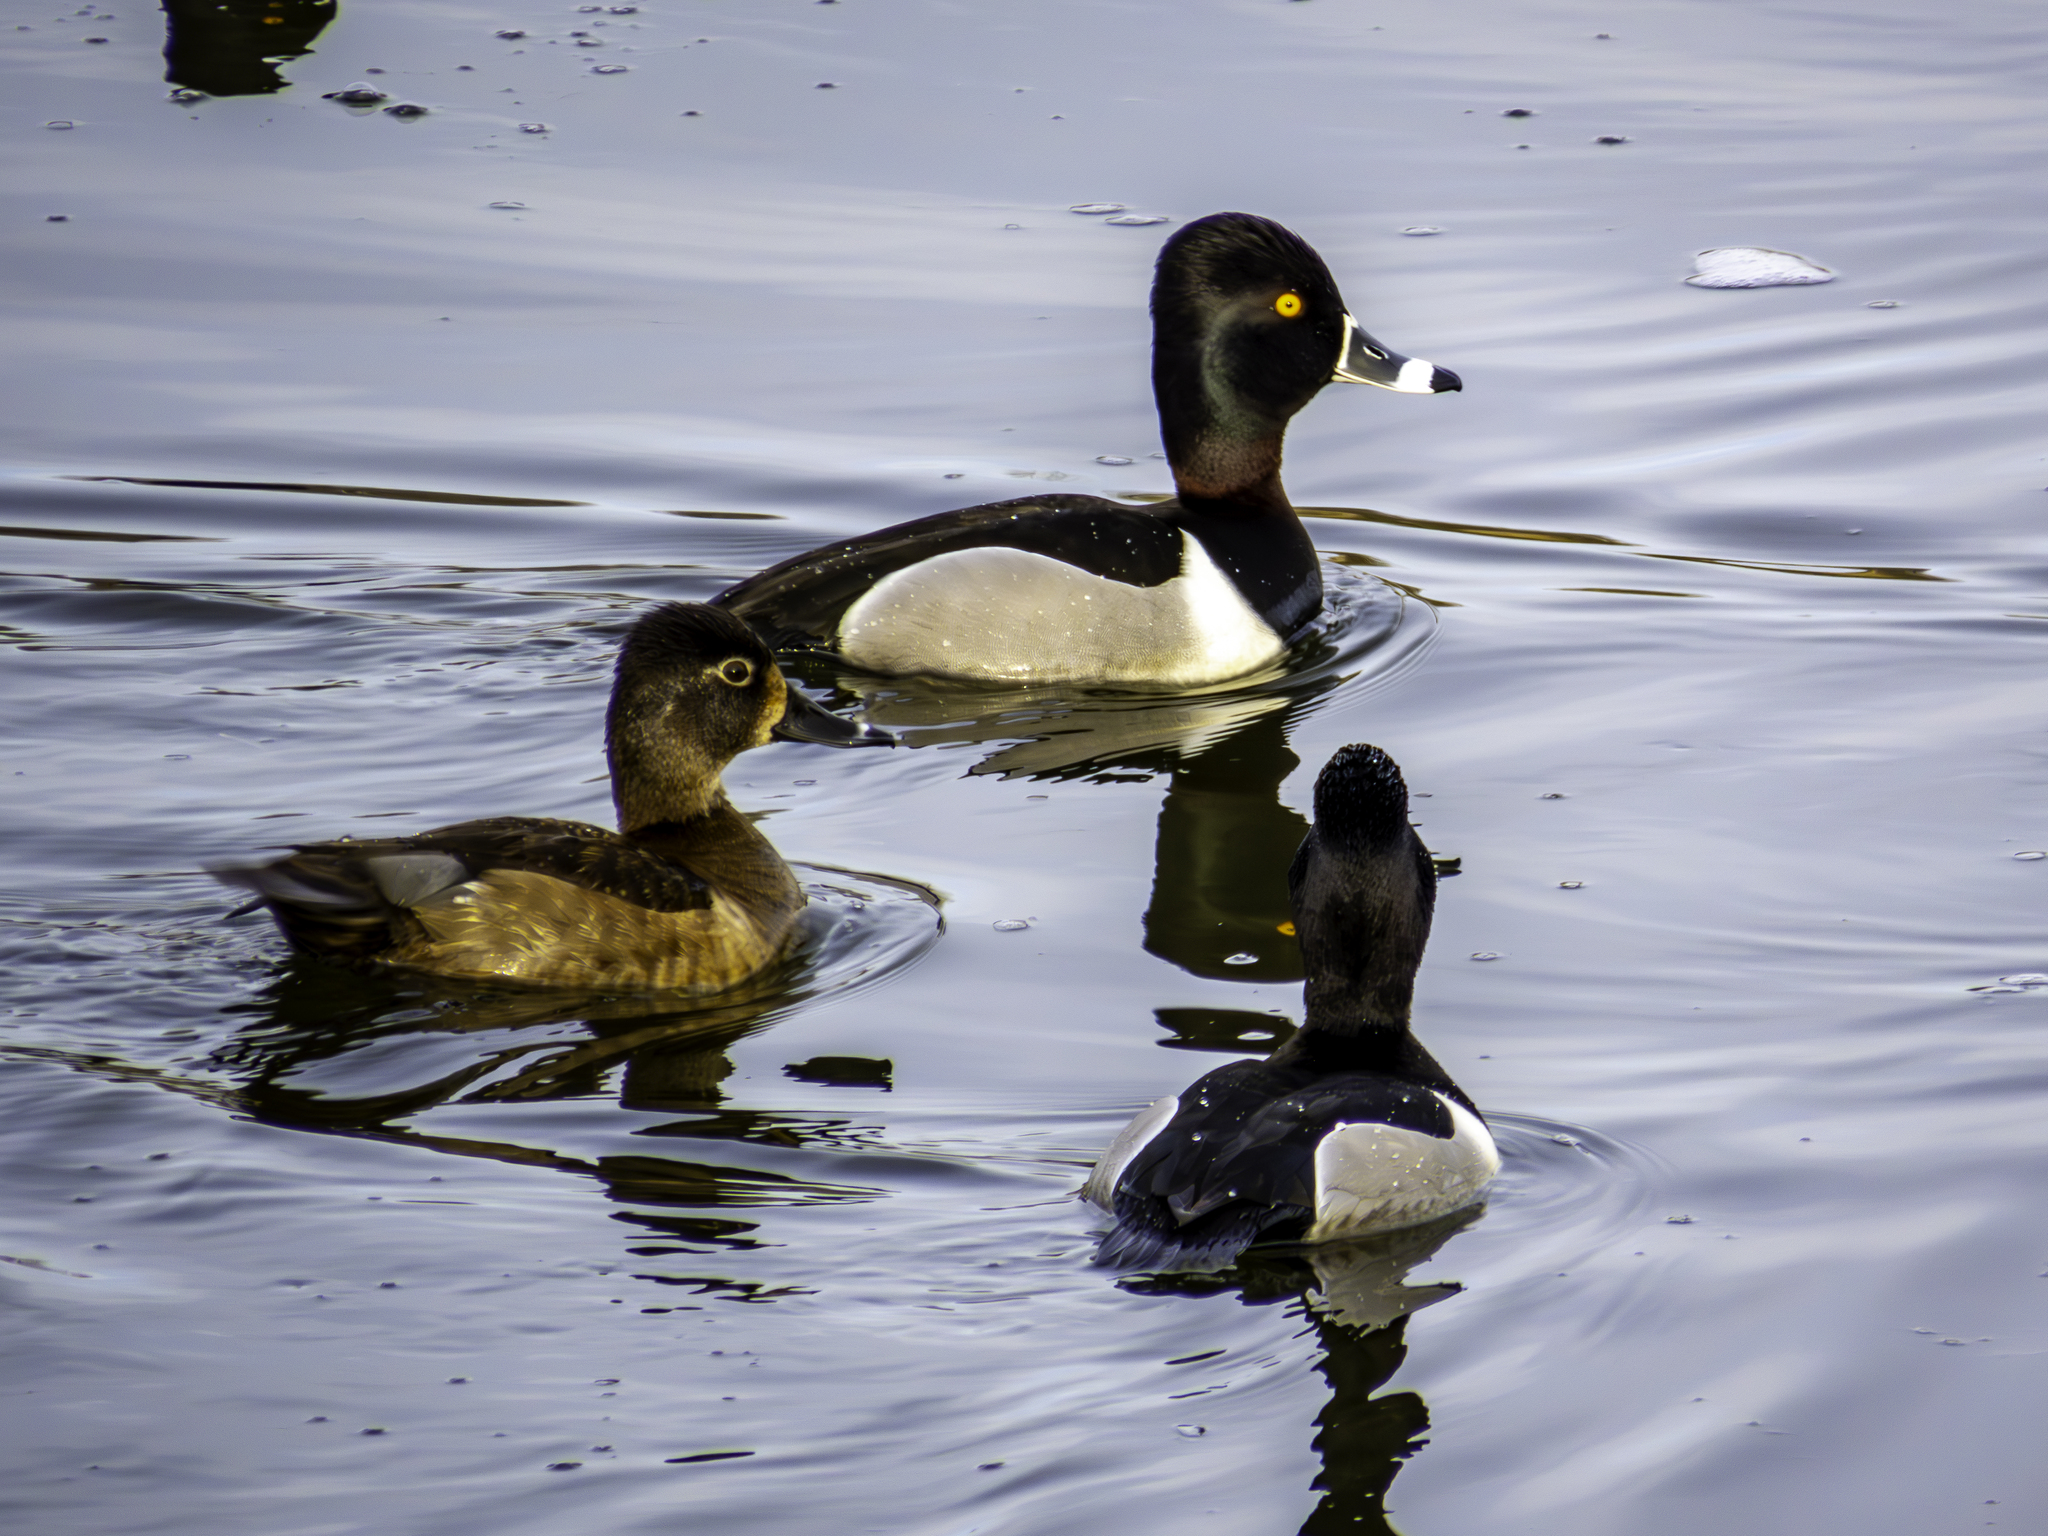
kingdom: Animalia
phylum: Chordata
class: Aves
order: Anseriformes
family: Anatidae
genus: Aythya
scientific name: Aythya collaris
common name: Ring-necked duck
